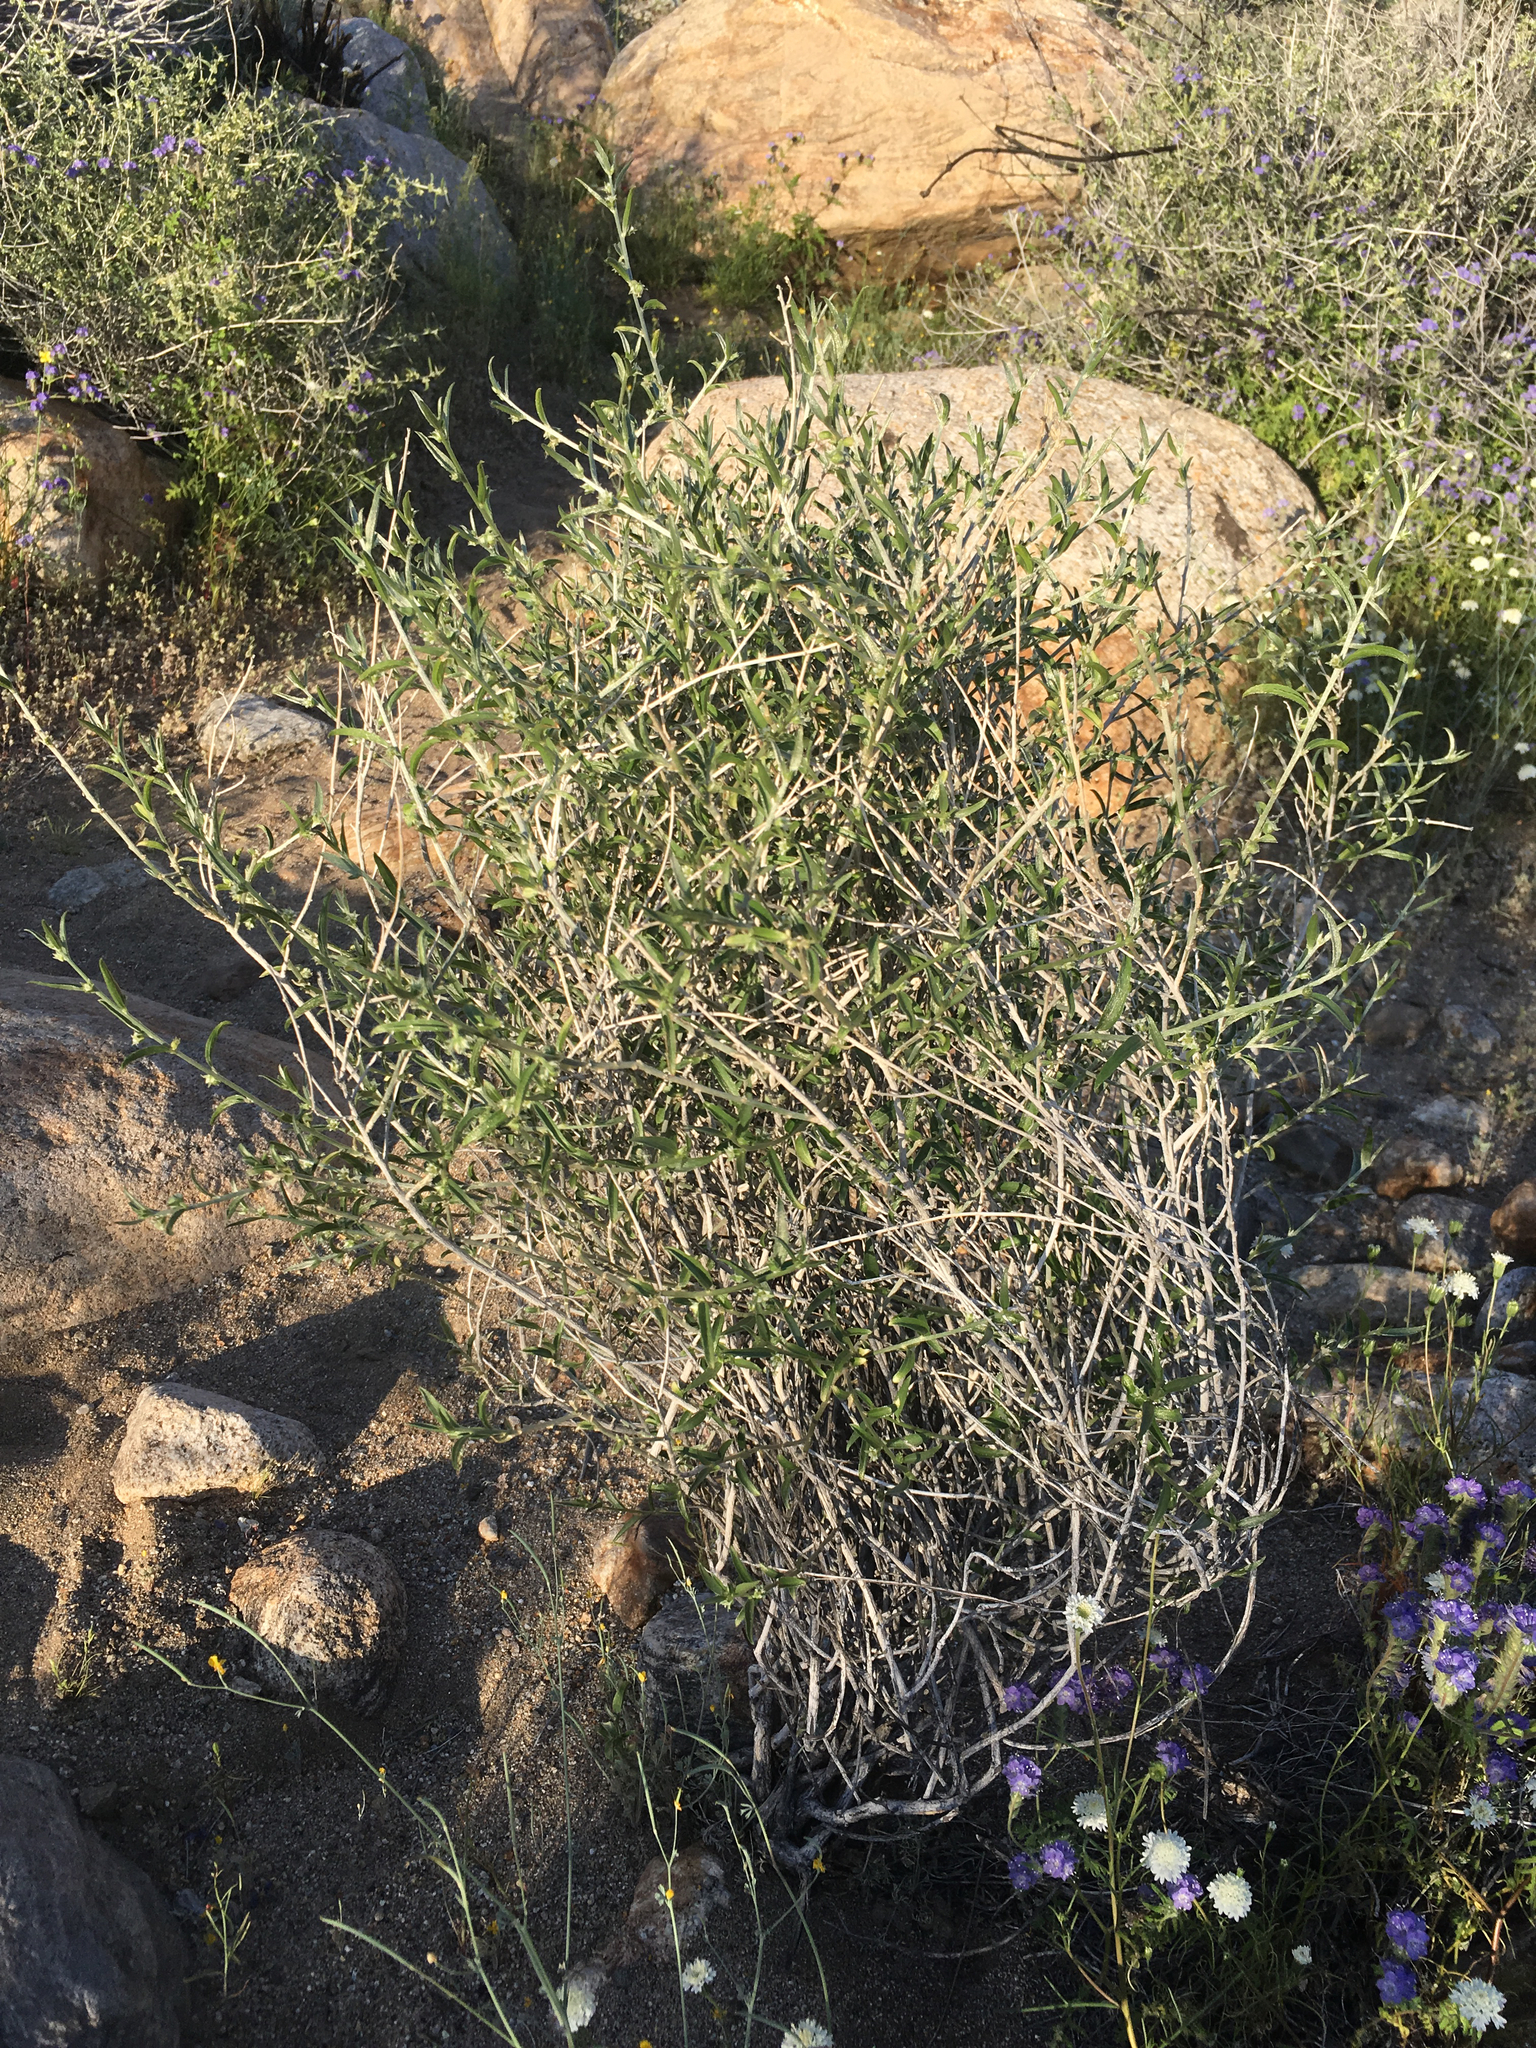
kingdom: Plantae
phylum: Tracheophyta
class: Magnoliopsida
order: Malpighiales
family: Euphorbiaceae
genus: Ditaxis
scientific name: Ditaxis lanceolata
